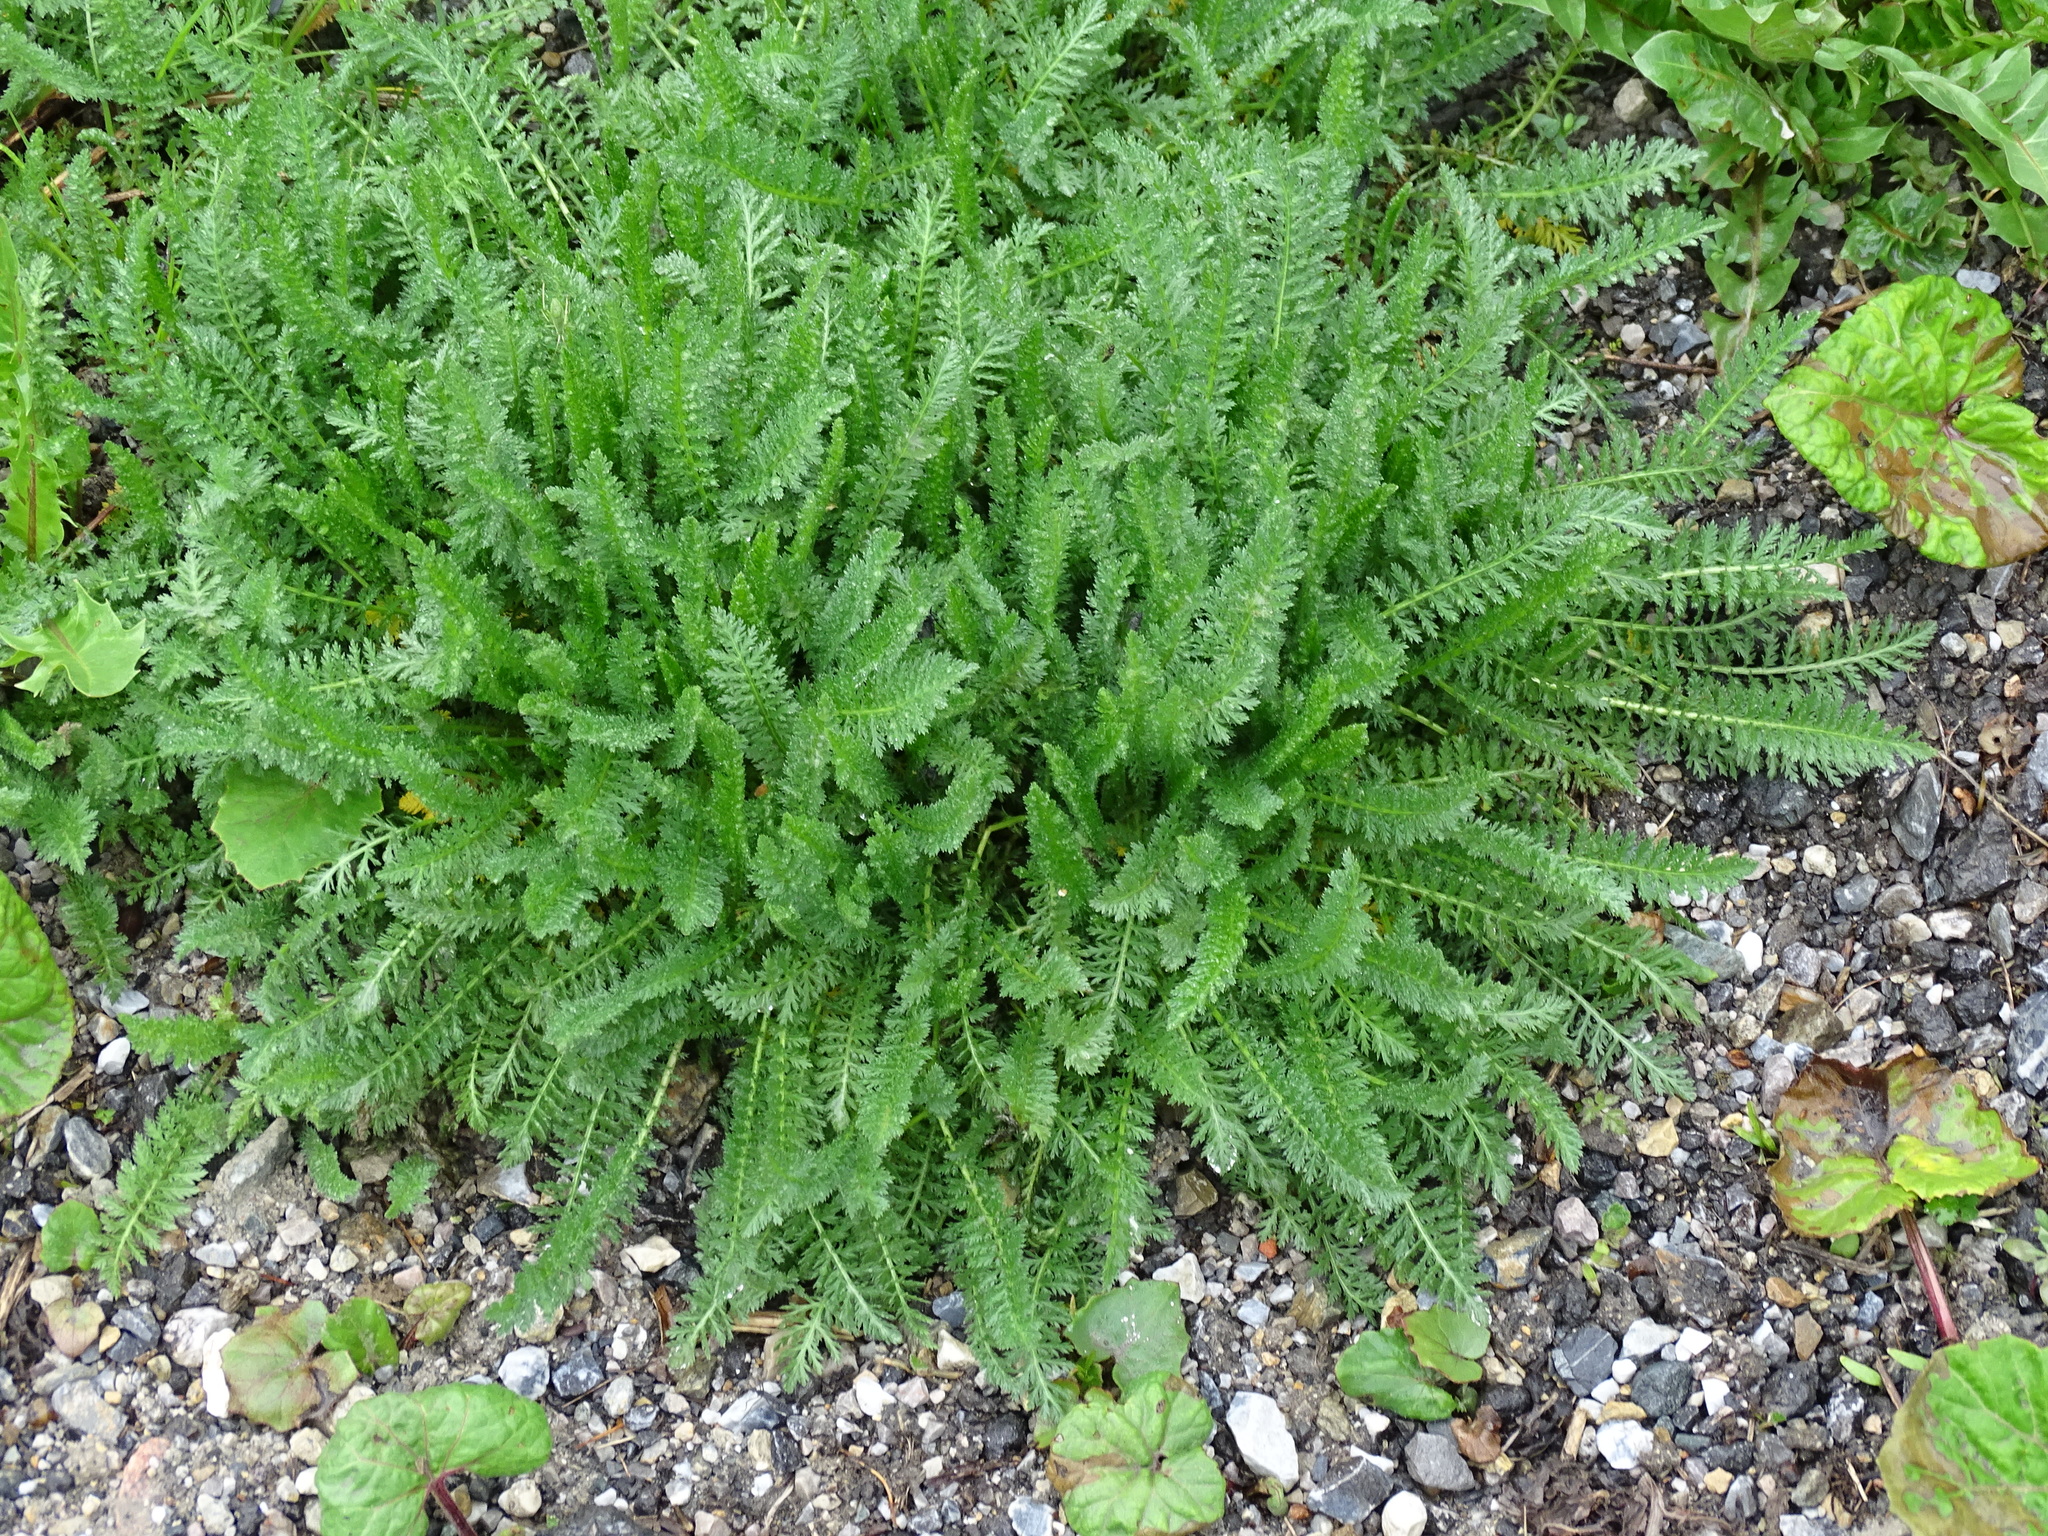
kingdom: Plantae
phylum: Tracheophyta
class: Magnoliopsida
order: Asterales
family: Asteraceae
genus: Achillea
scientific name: Achillea
